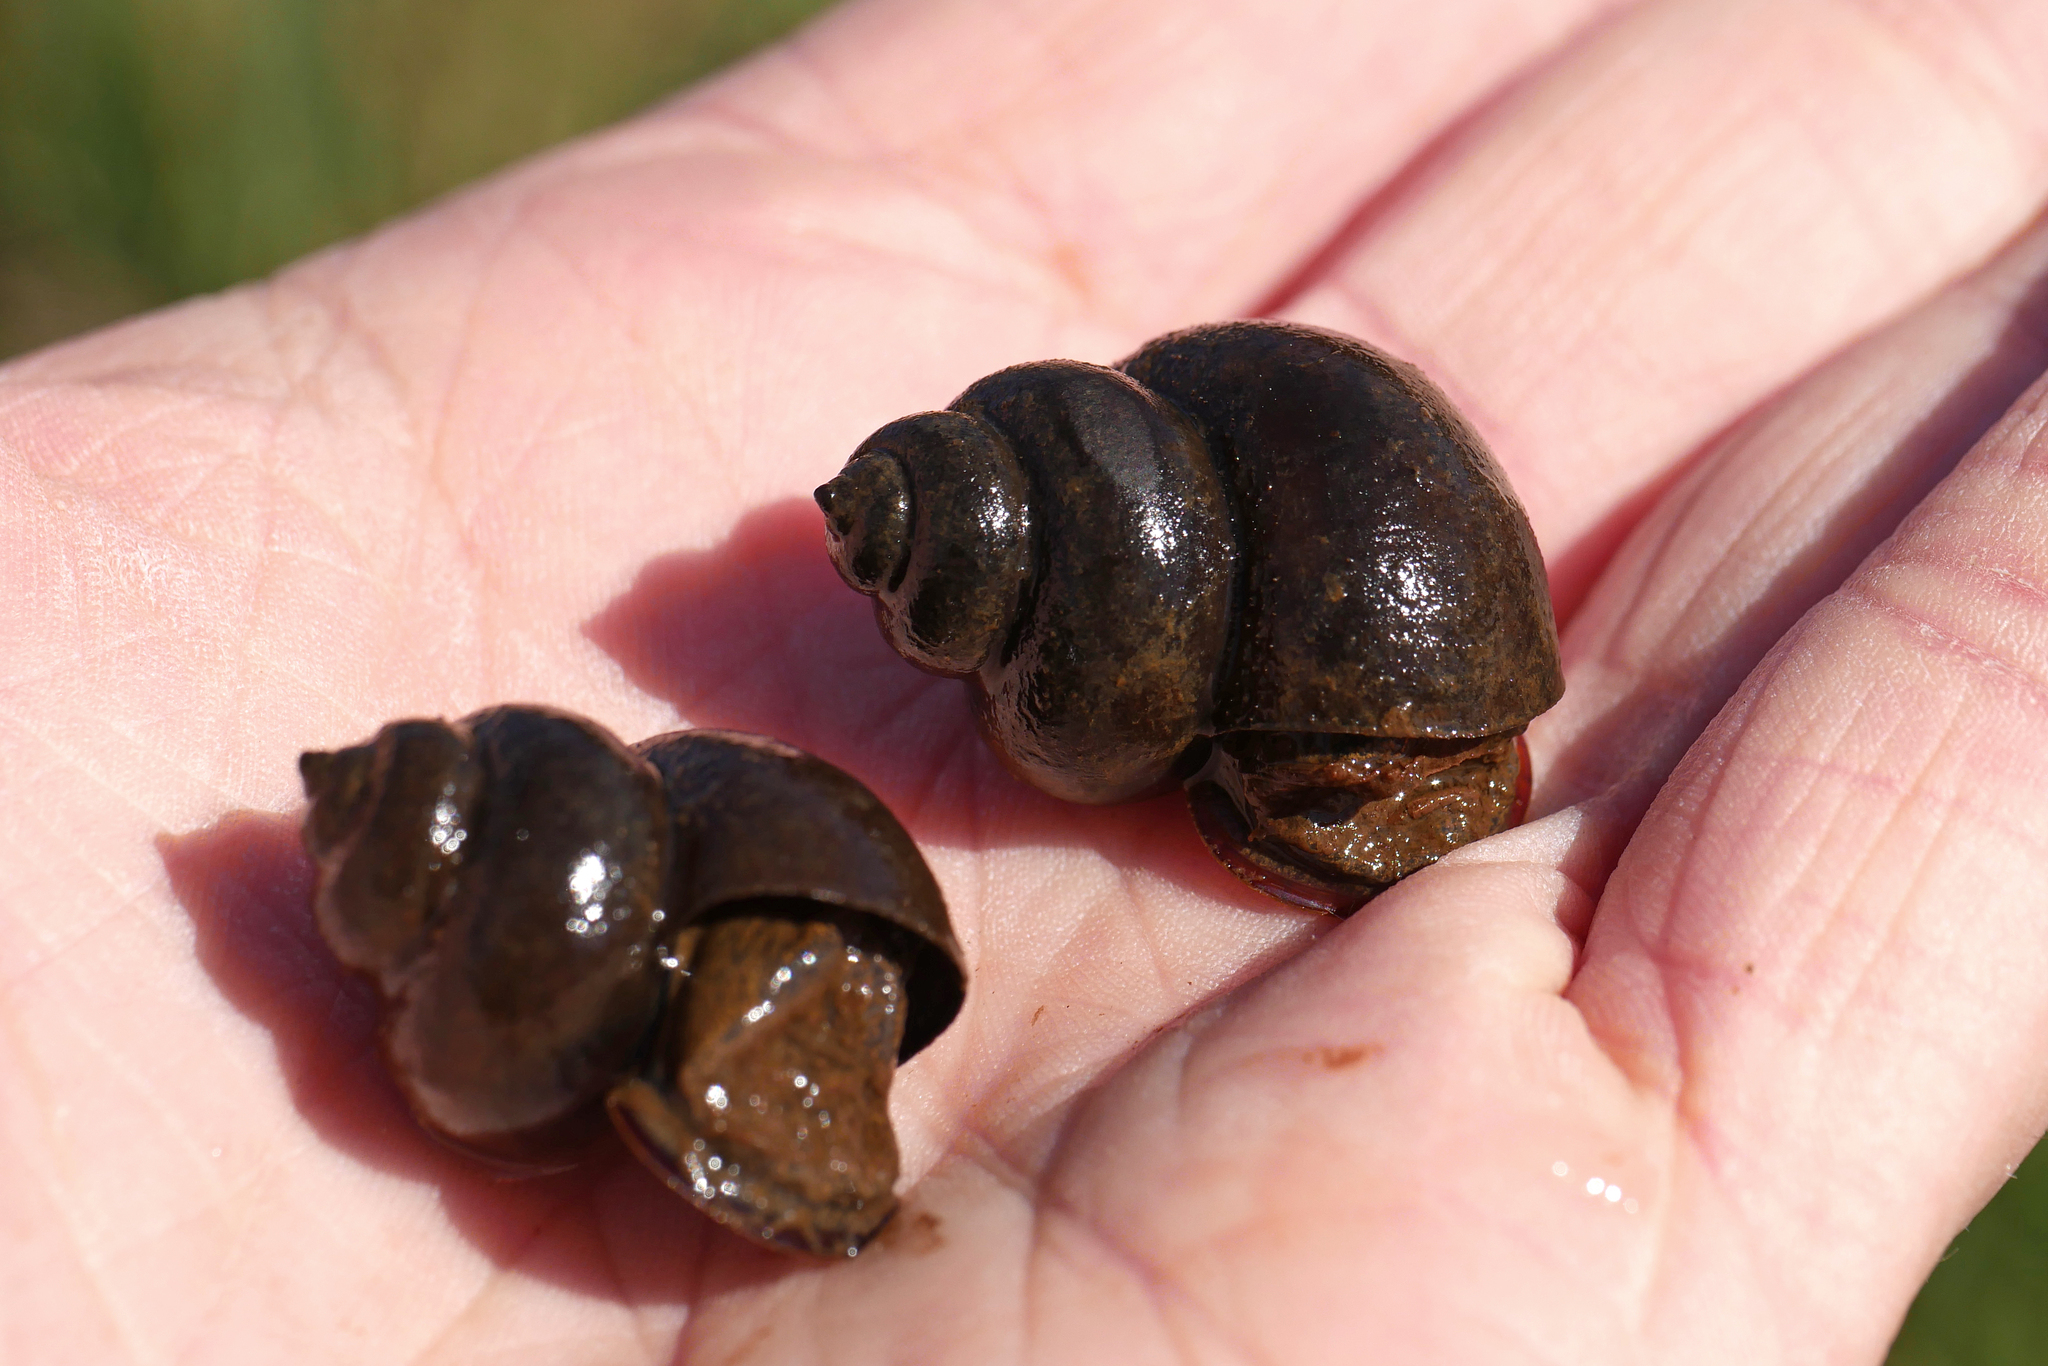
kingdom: Animalia
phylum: Mollusca
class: Gastropoda
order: Architaenioglossa
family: Viviparidae
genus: Viviparus
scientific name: Viviparus contectus
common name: Lister's river snail
